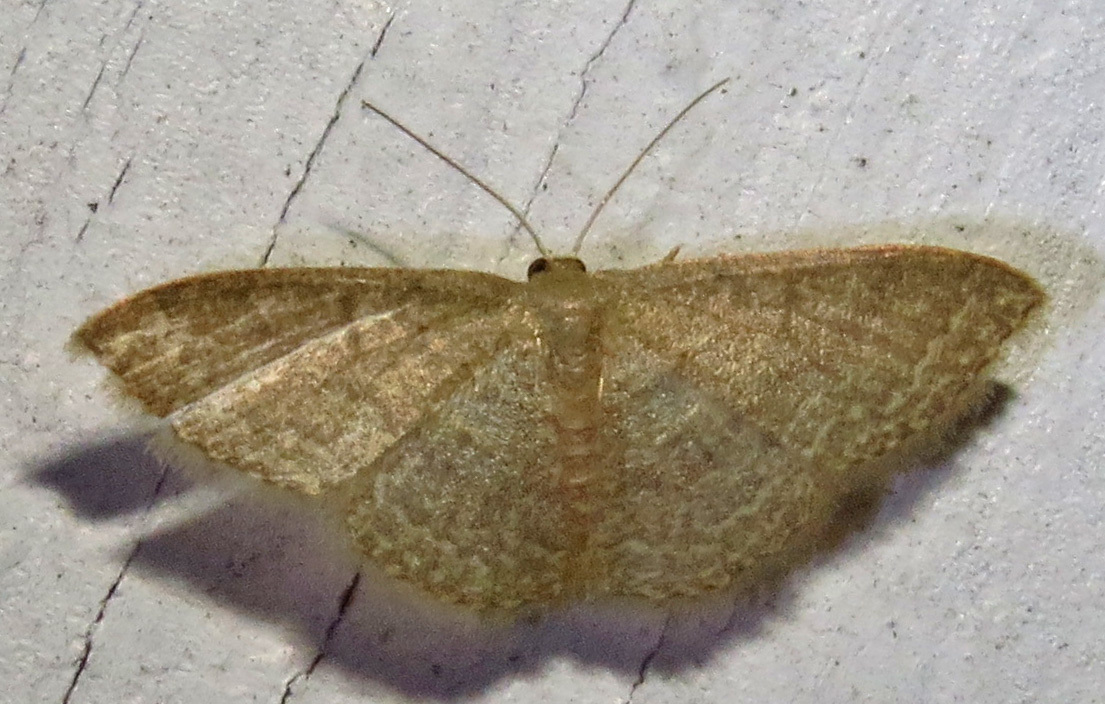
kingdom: Animalia
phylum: Arthropoda
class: Insecta
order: Lepidoptera
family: Geometridae
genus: Pleuroprucha
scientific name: Pleuroprucha insulsaria
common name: Common tan wave
